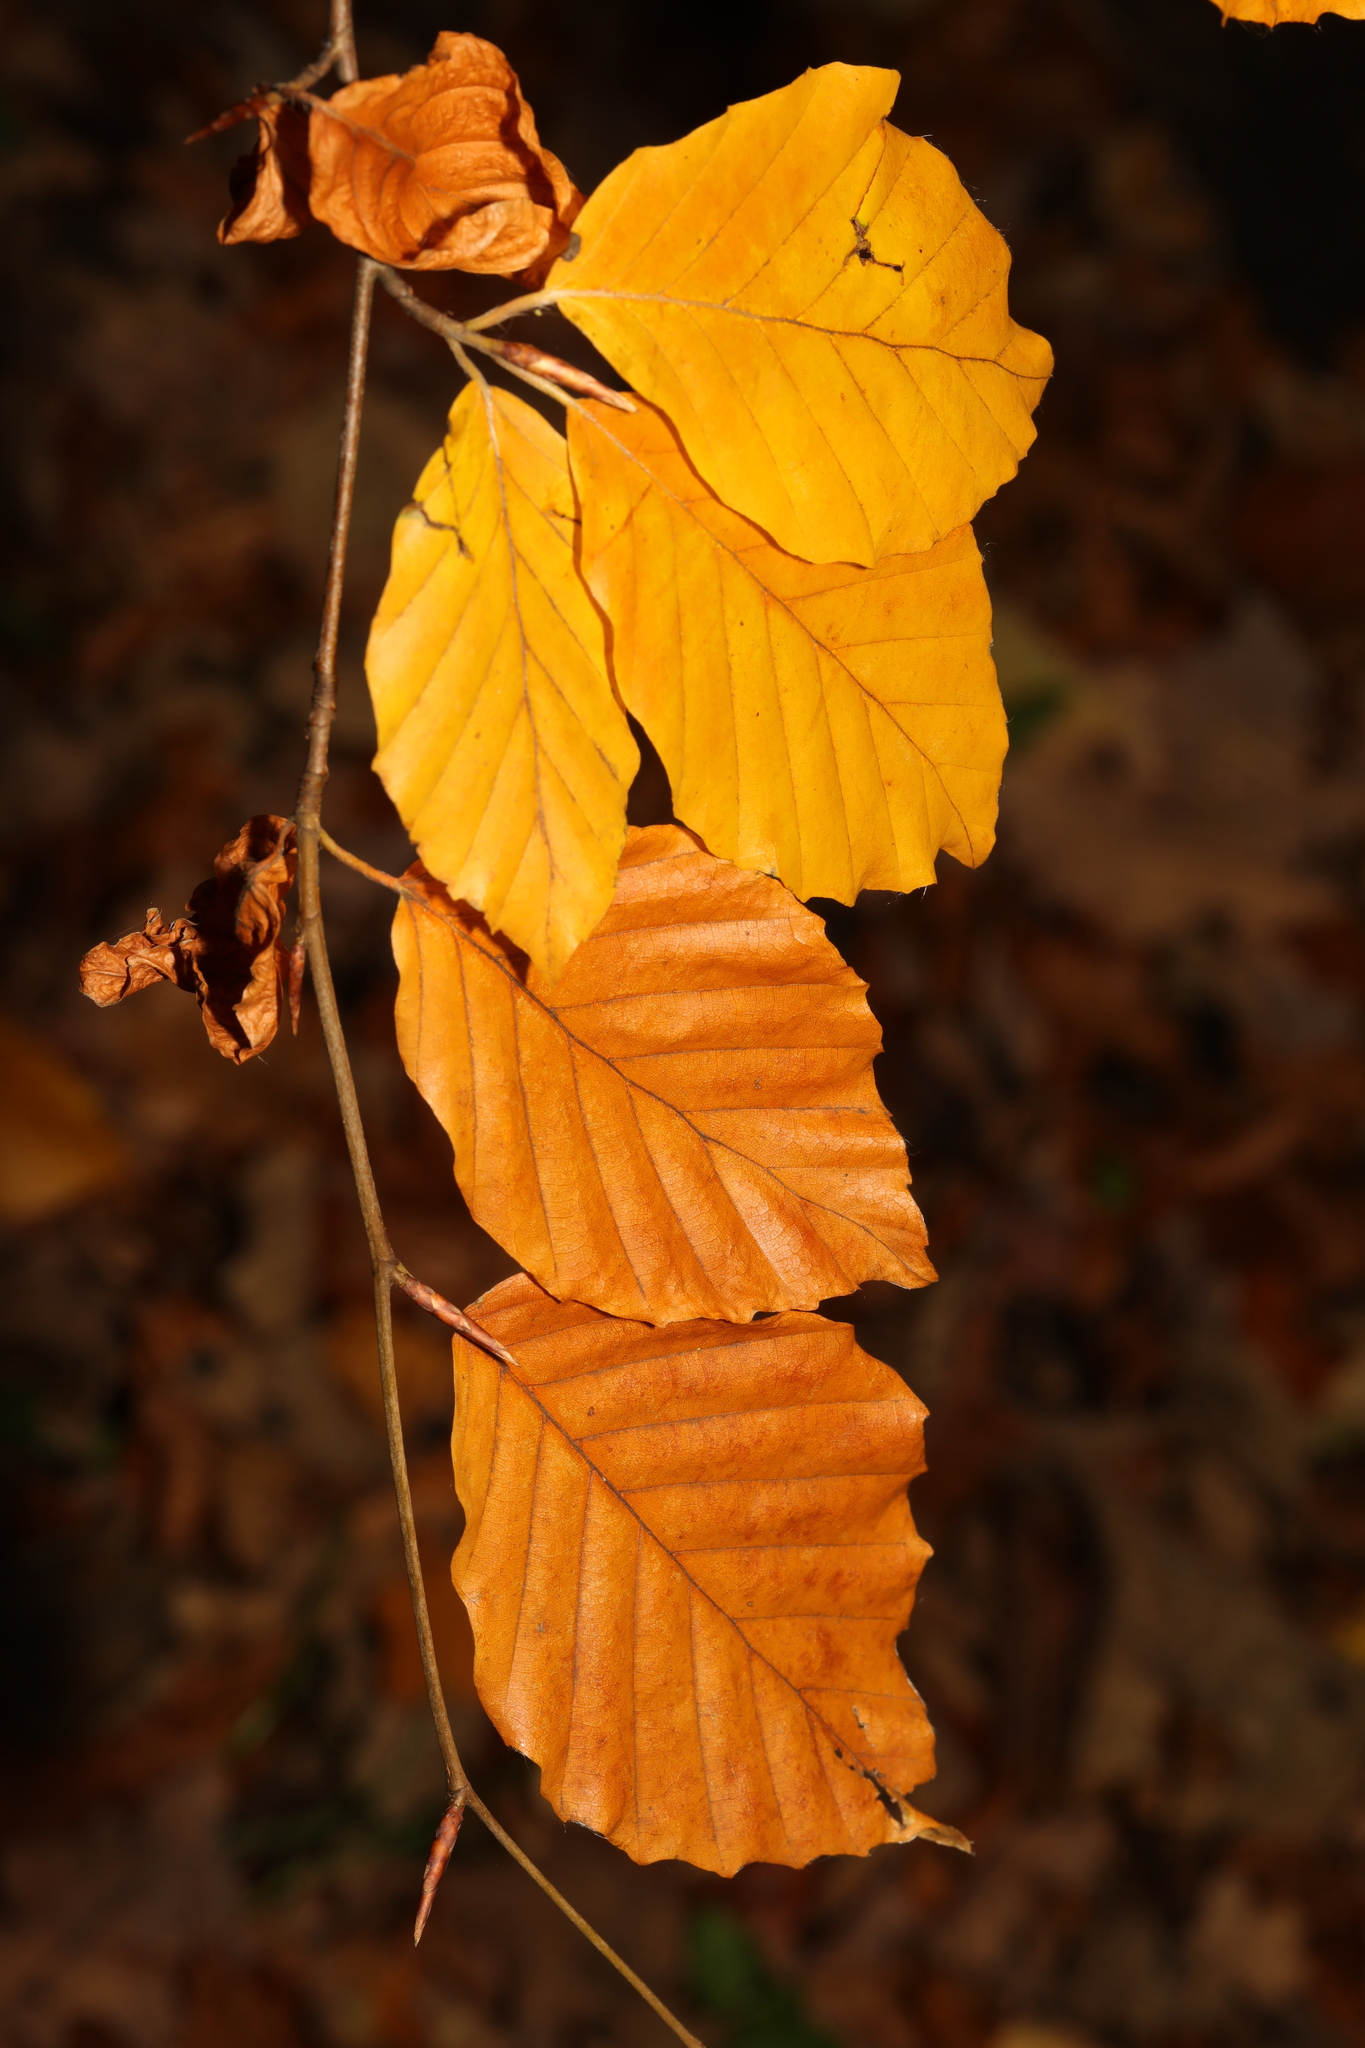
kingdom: Plantae
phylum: Tracheophyta
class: Magnoliopsida
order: Fagales
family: Fagaceae
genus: Fagus
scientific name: Fagus sylvatica
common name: Beech
